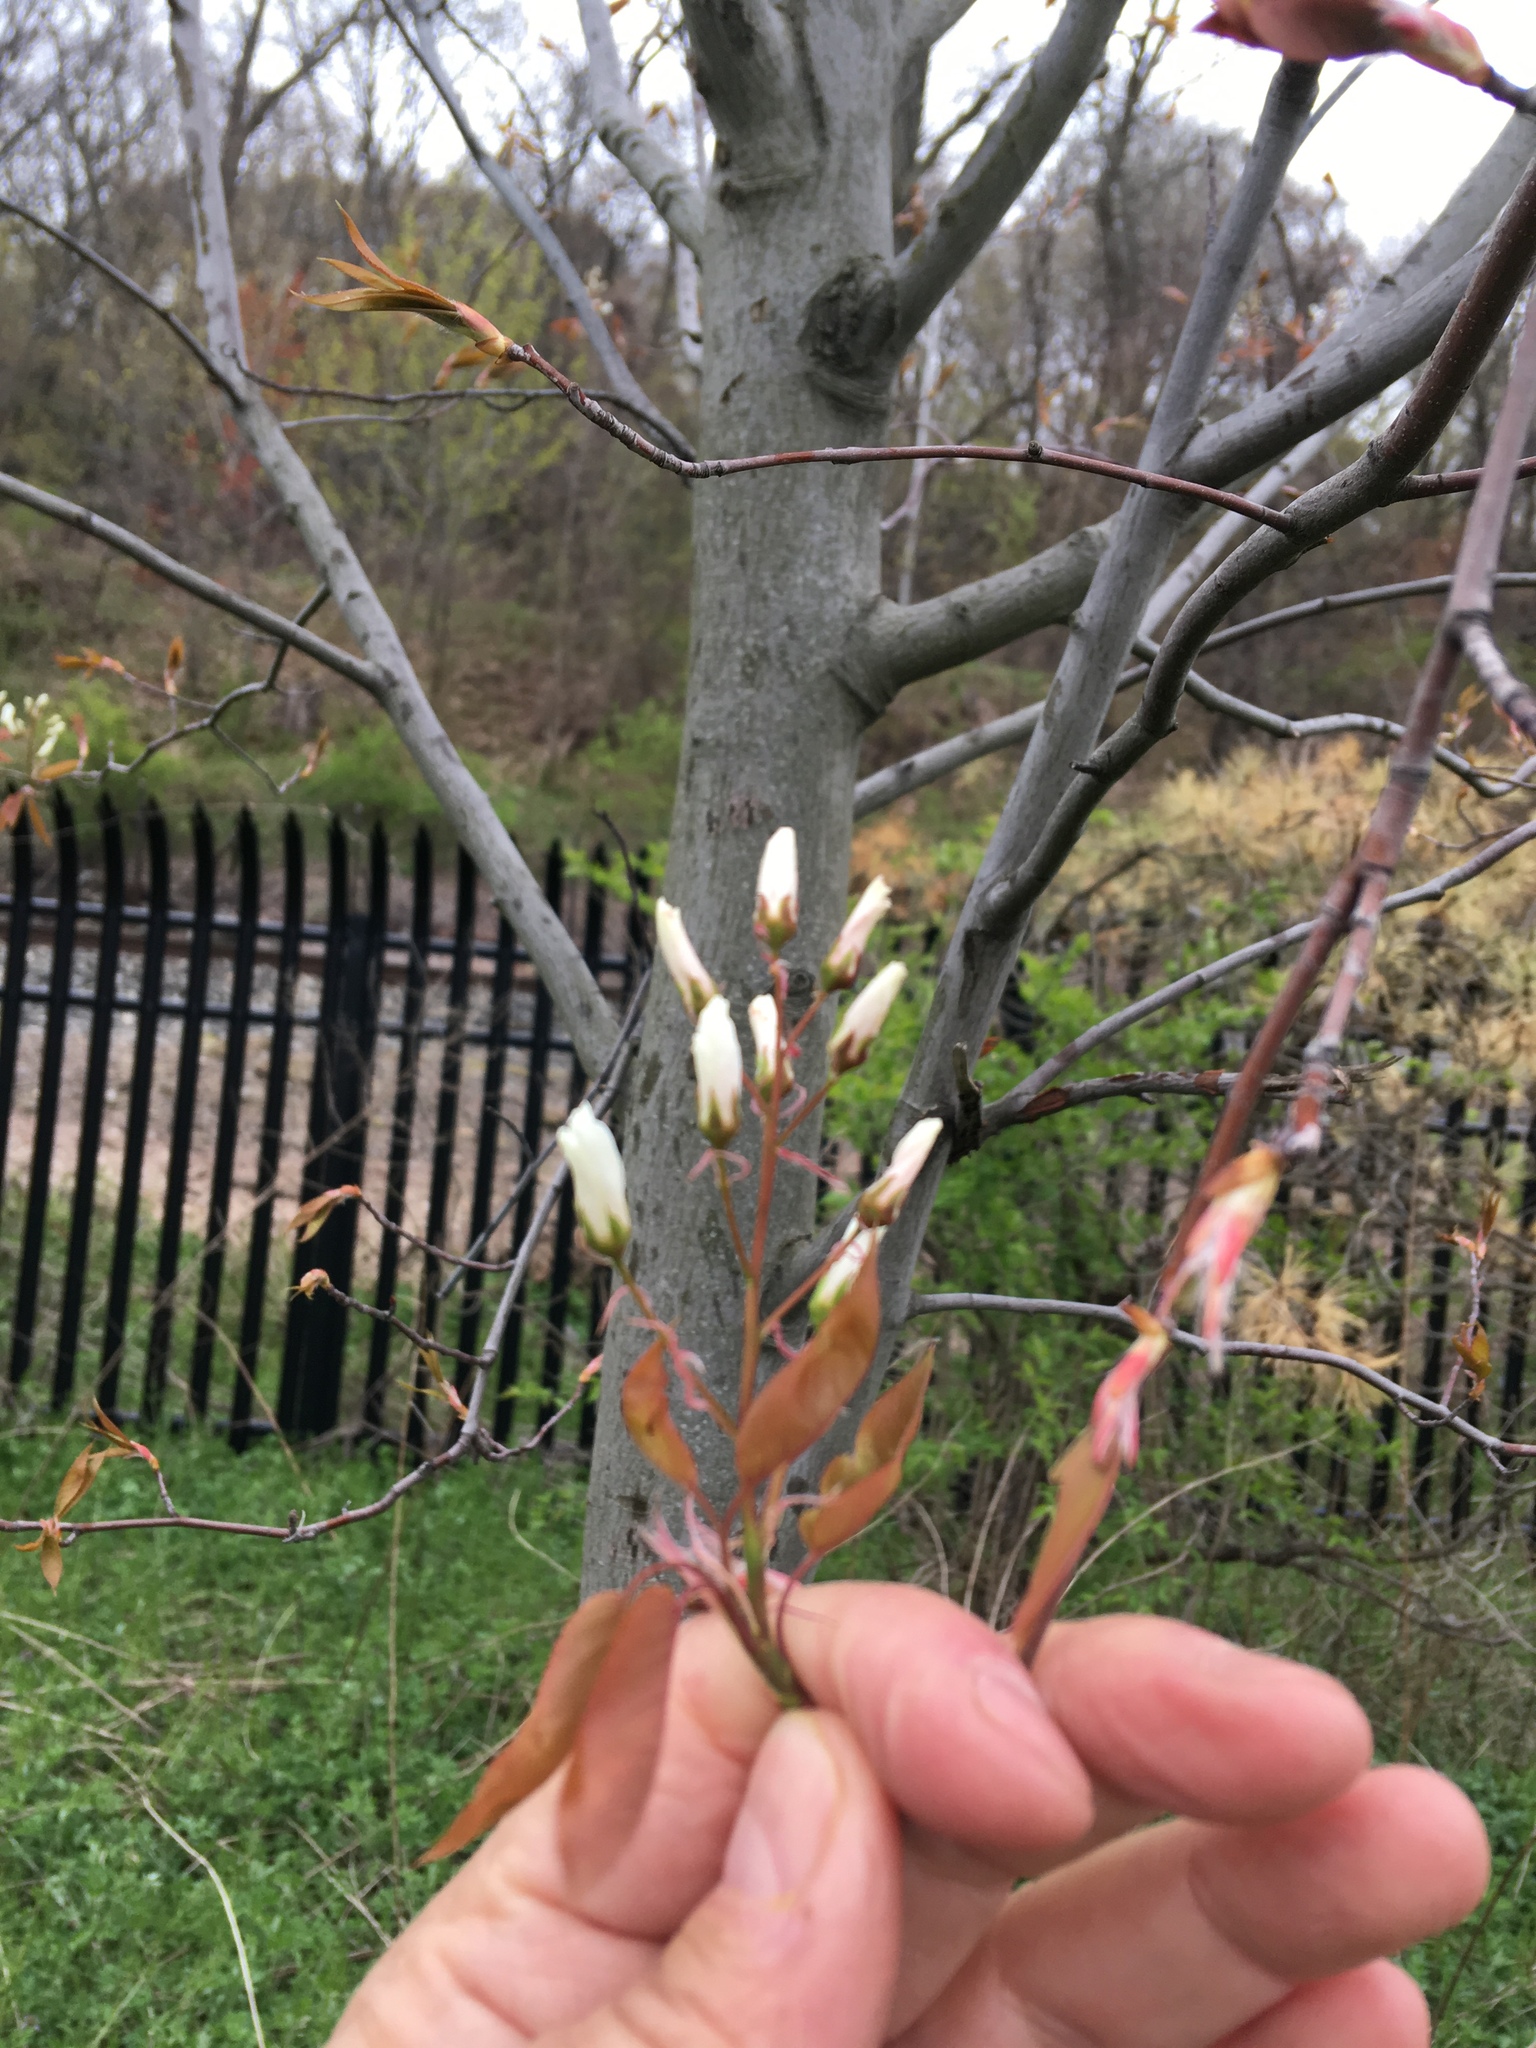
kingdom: Plantae
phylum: Tracheophyta
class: Magnoliopsida
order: Rosales
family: Rosaceae
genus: Amelanchier
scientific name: Amelanchier arborea
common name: Downy serviceberry
